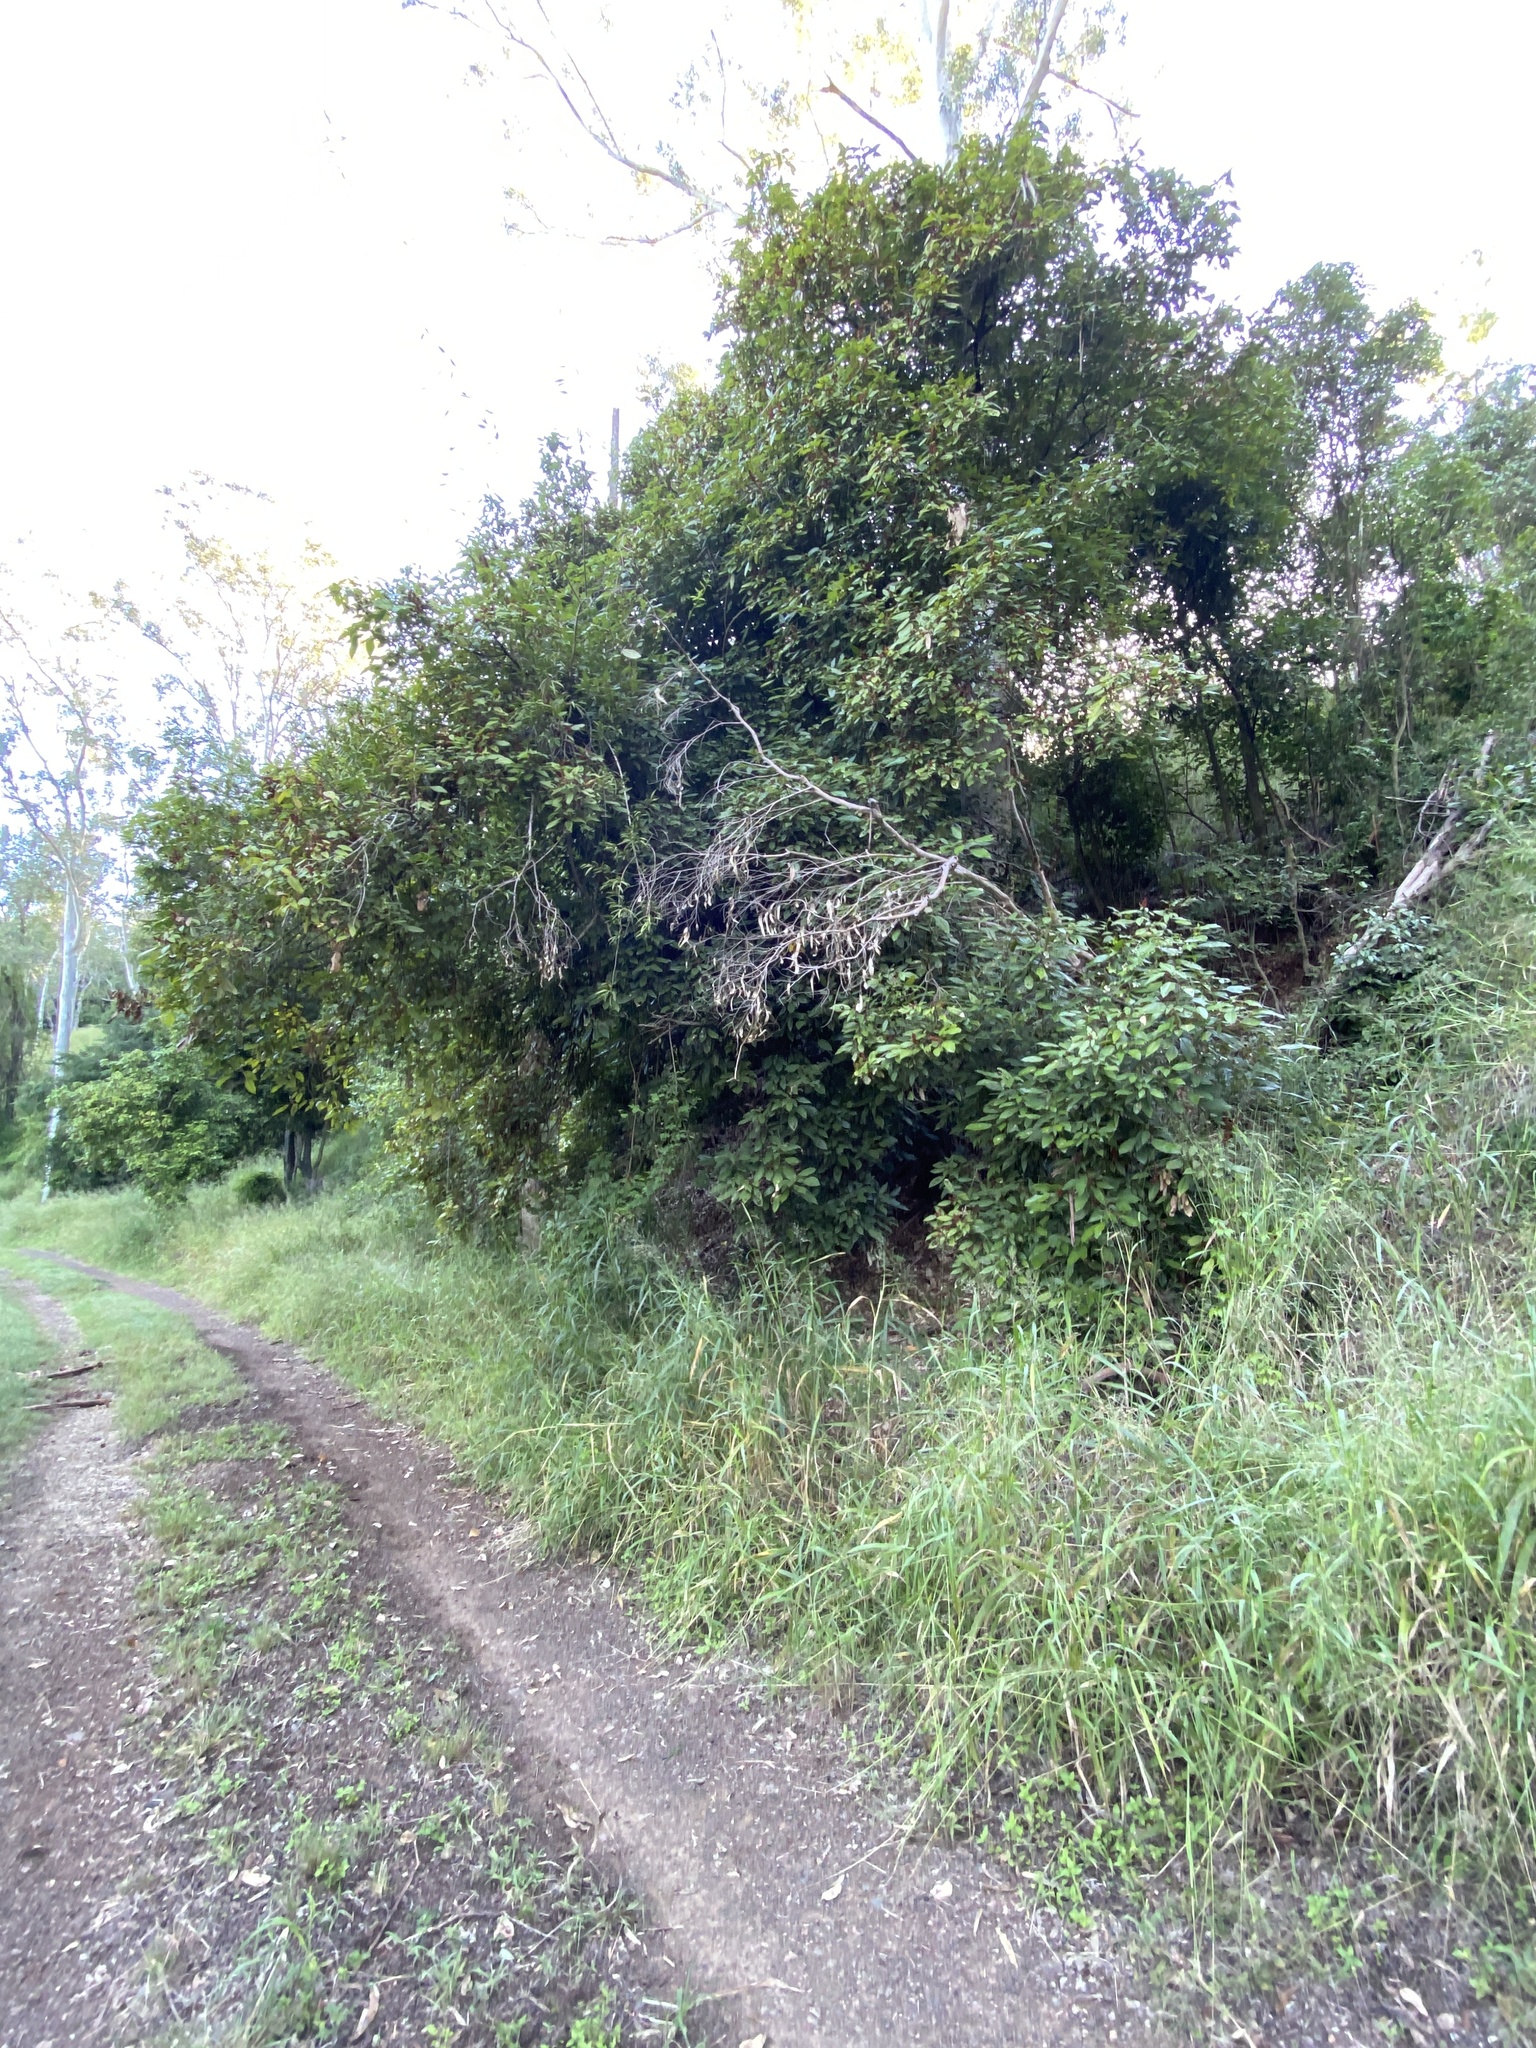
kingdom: Plantae
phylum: Tracheophyta
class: Magnoliopsida
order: Malpighiales
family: Euphorbiaceae
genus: Mallotus
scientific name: Mallotus philippensis
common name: Kamala tree
